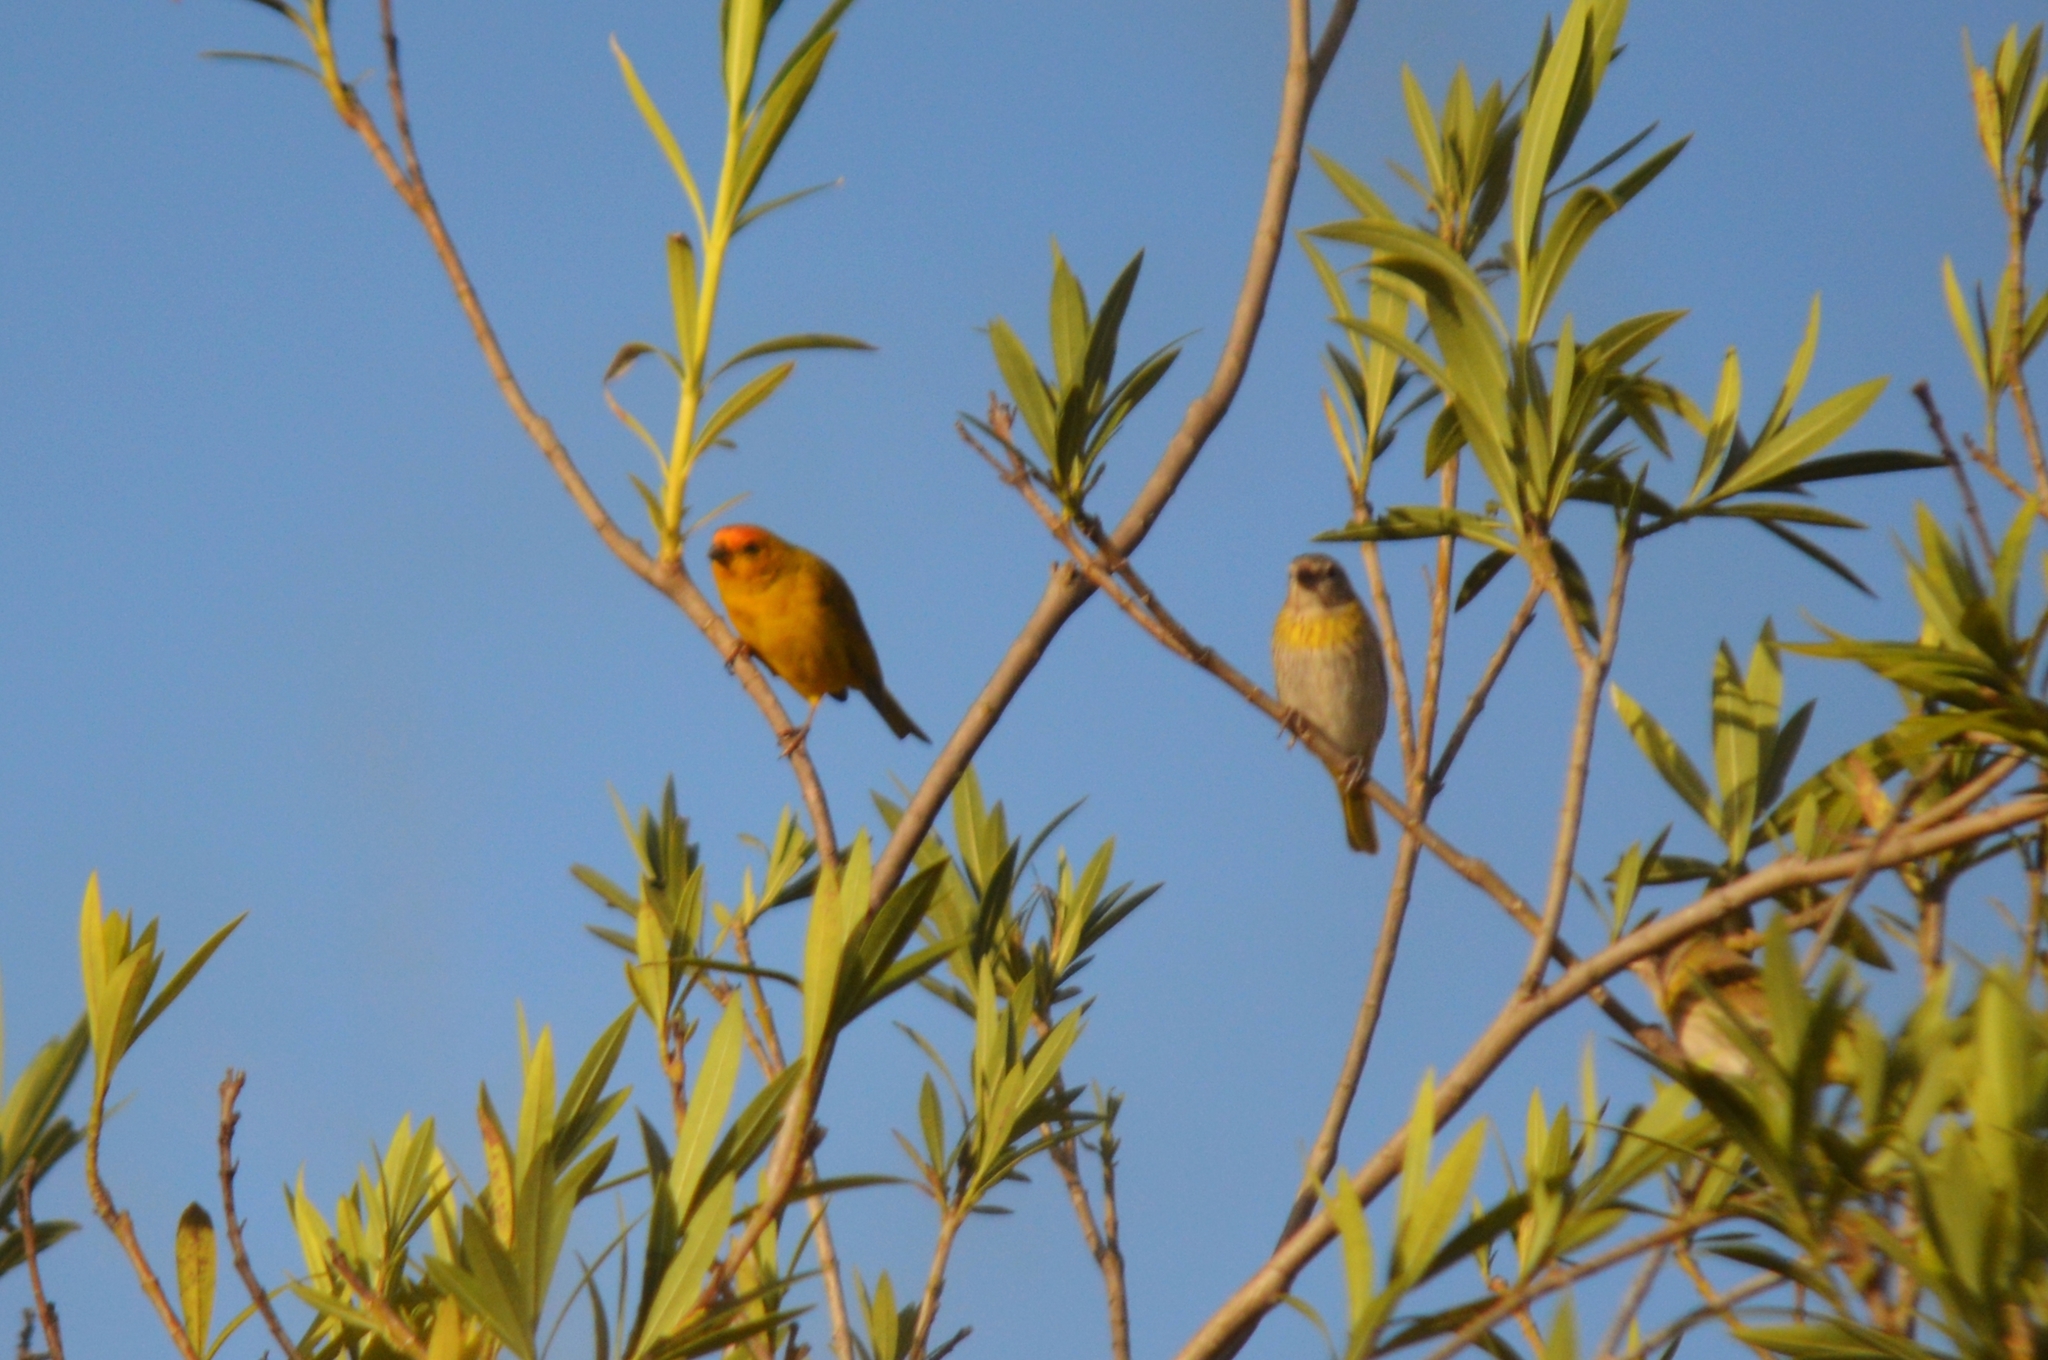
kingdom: Animalia
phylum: Chordata
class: Aves
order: Passeriformes
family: Thraupidae
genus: Sicalis
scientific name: Sicalis flaveola
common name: Saffron finch
